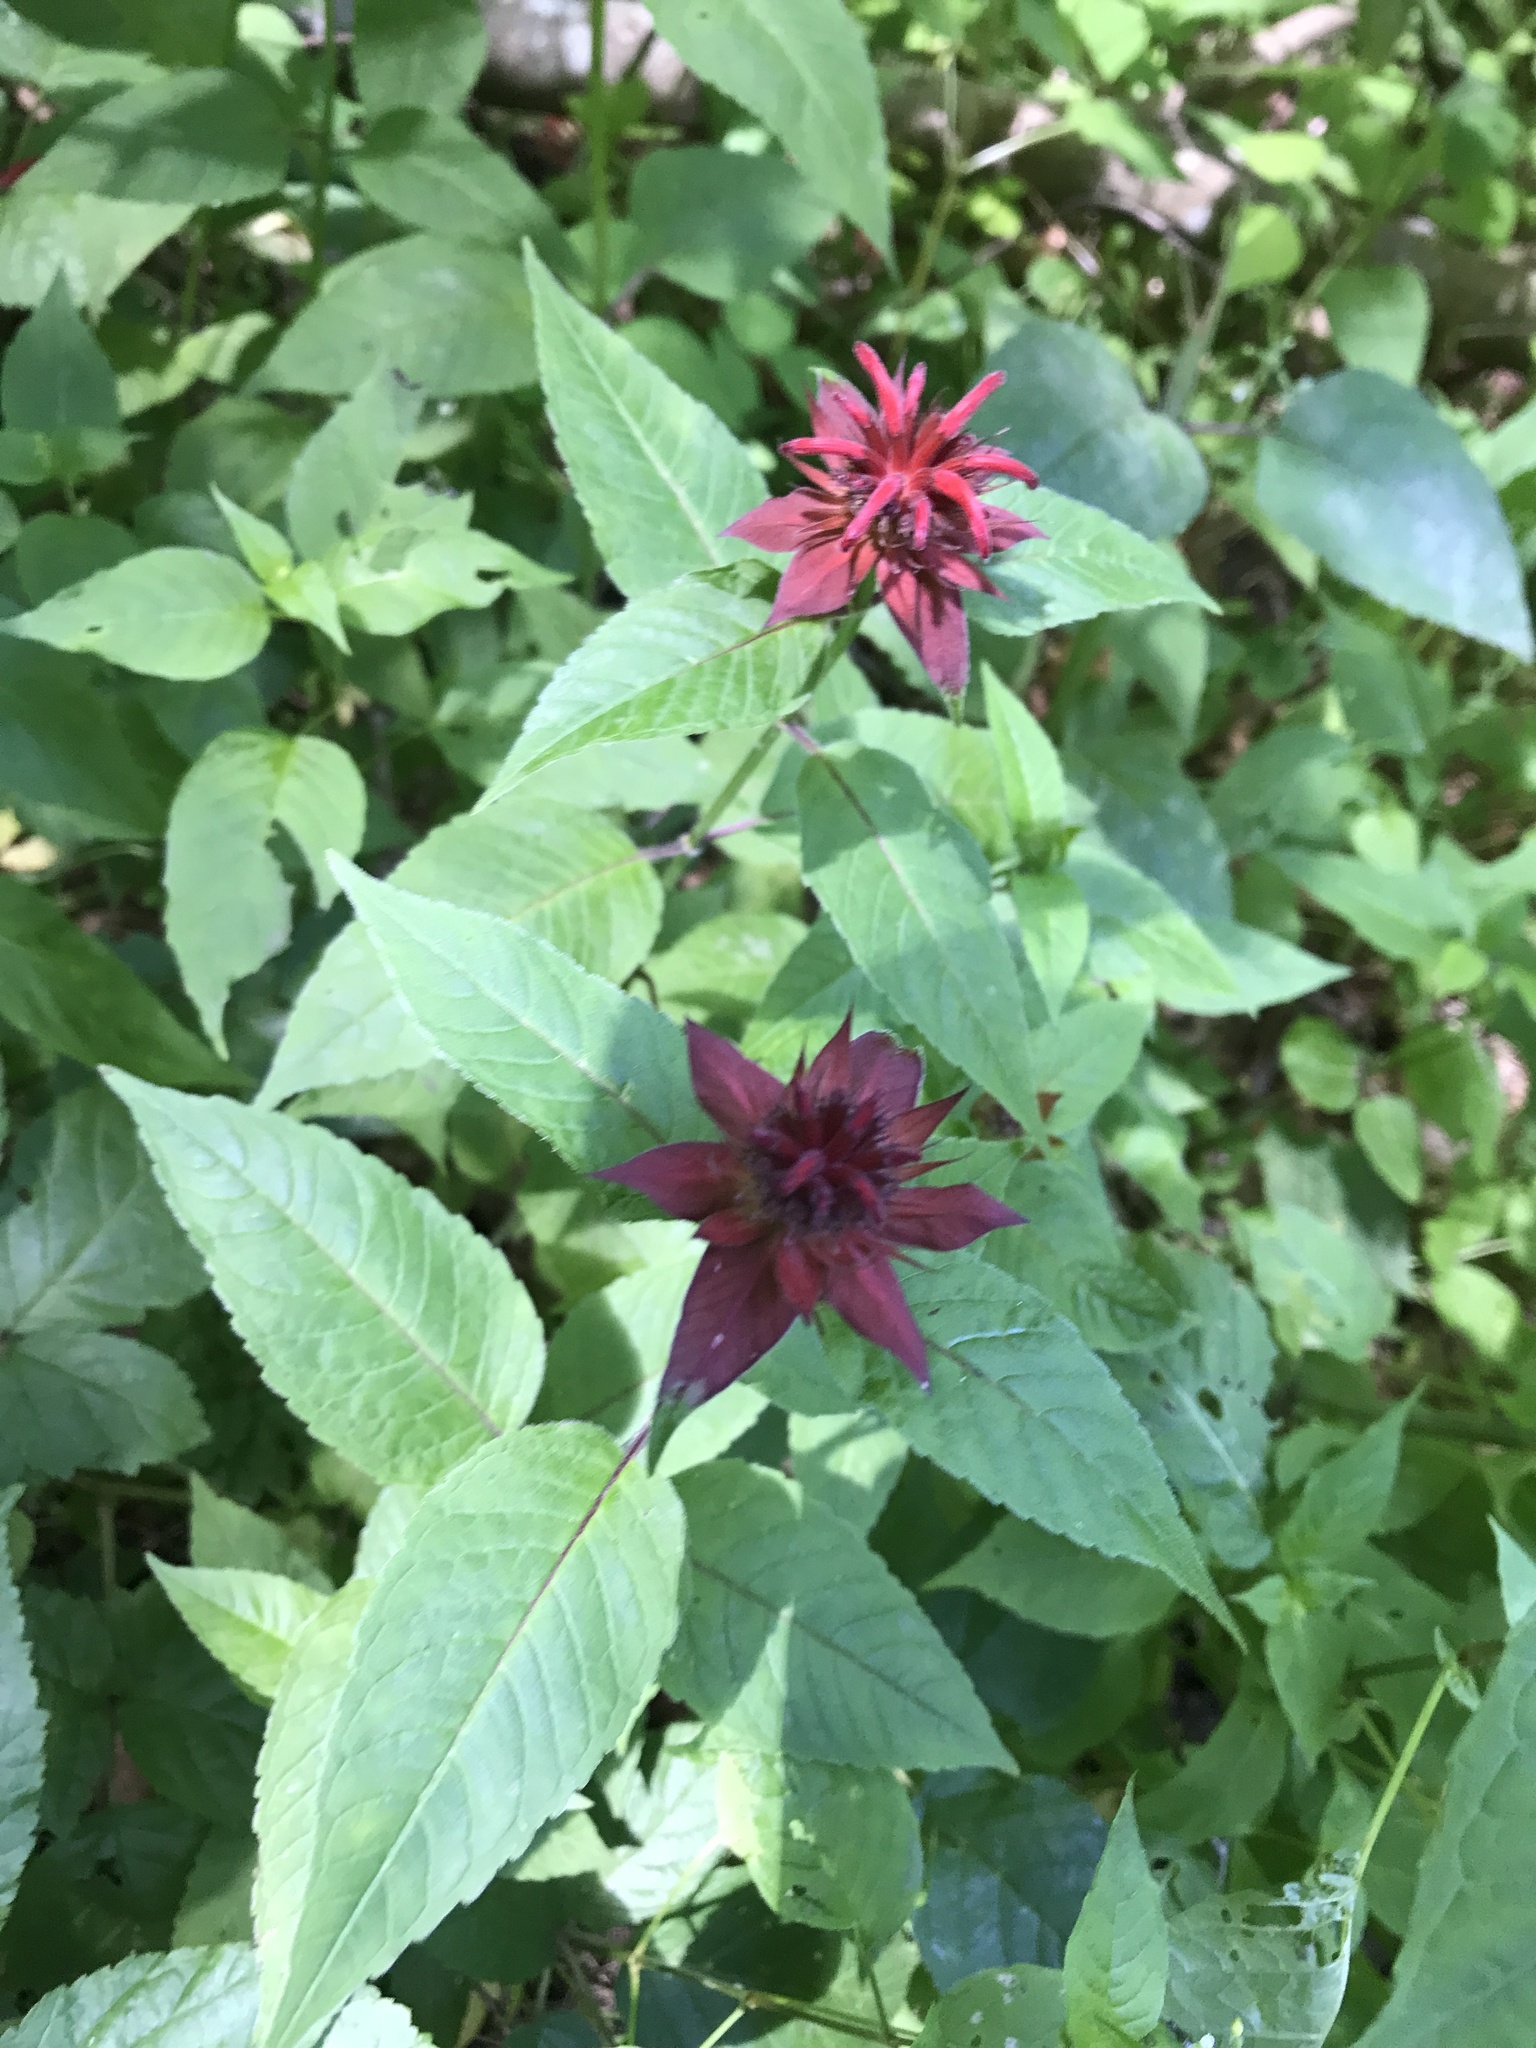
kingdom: Plantae
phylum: Tracheophyta
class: Magnoliopsida
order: Lamiales
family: Lamiaceae
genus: Monarda
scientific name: Monarda didyma
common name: Beebalm
